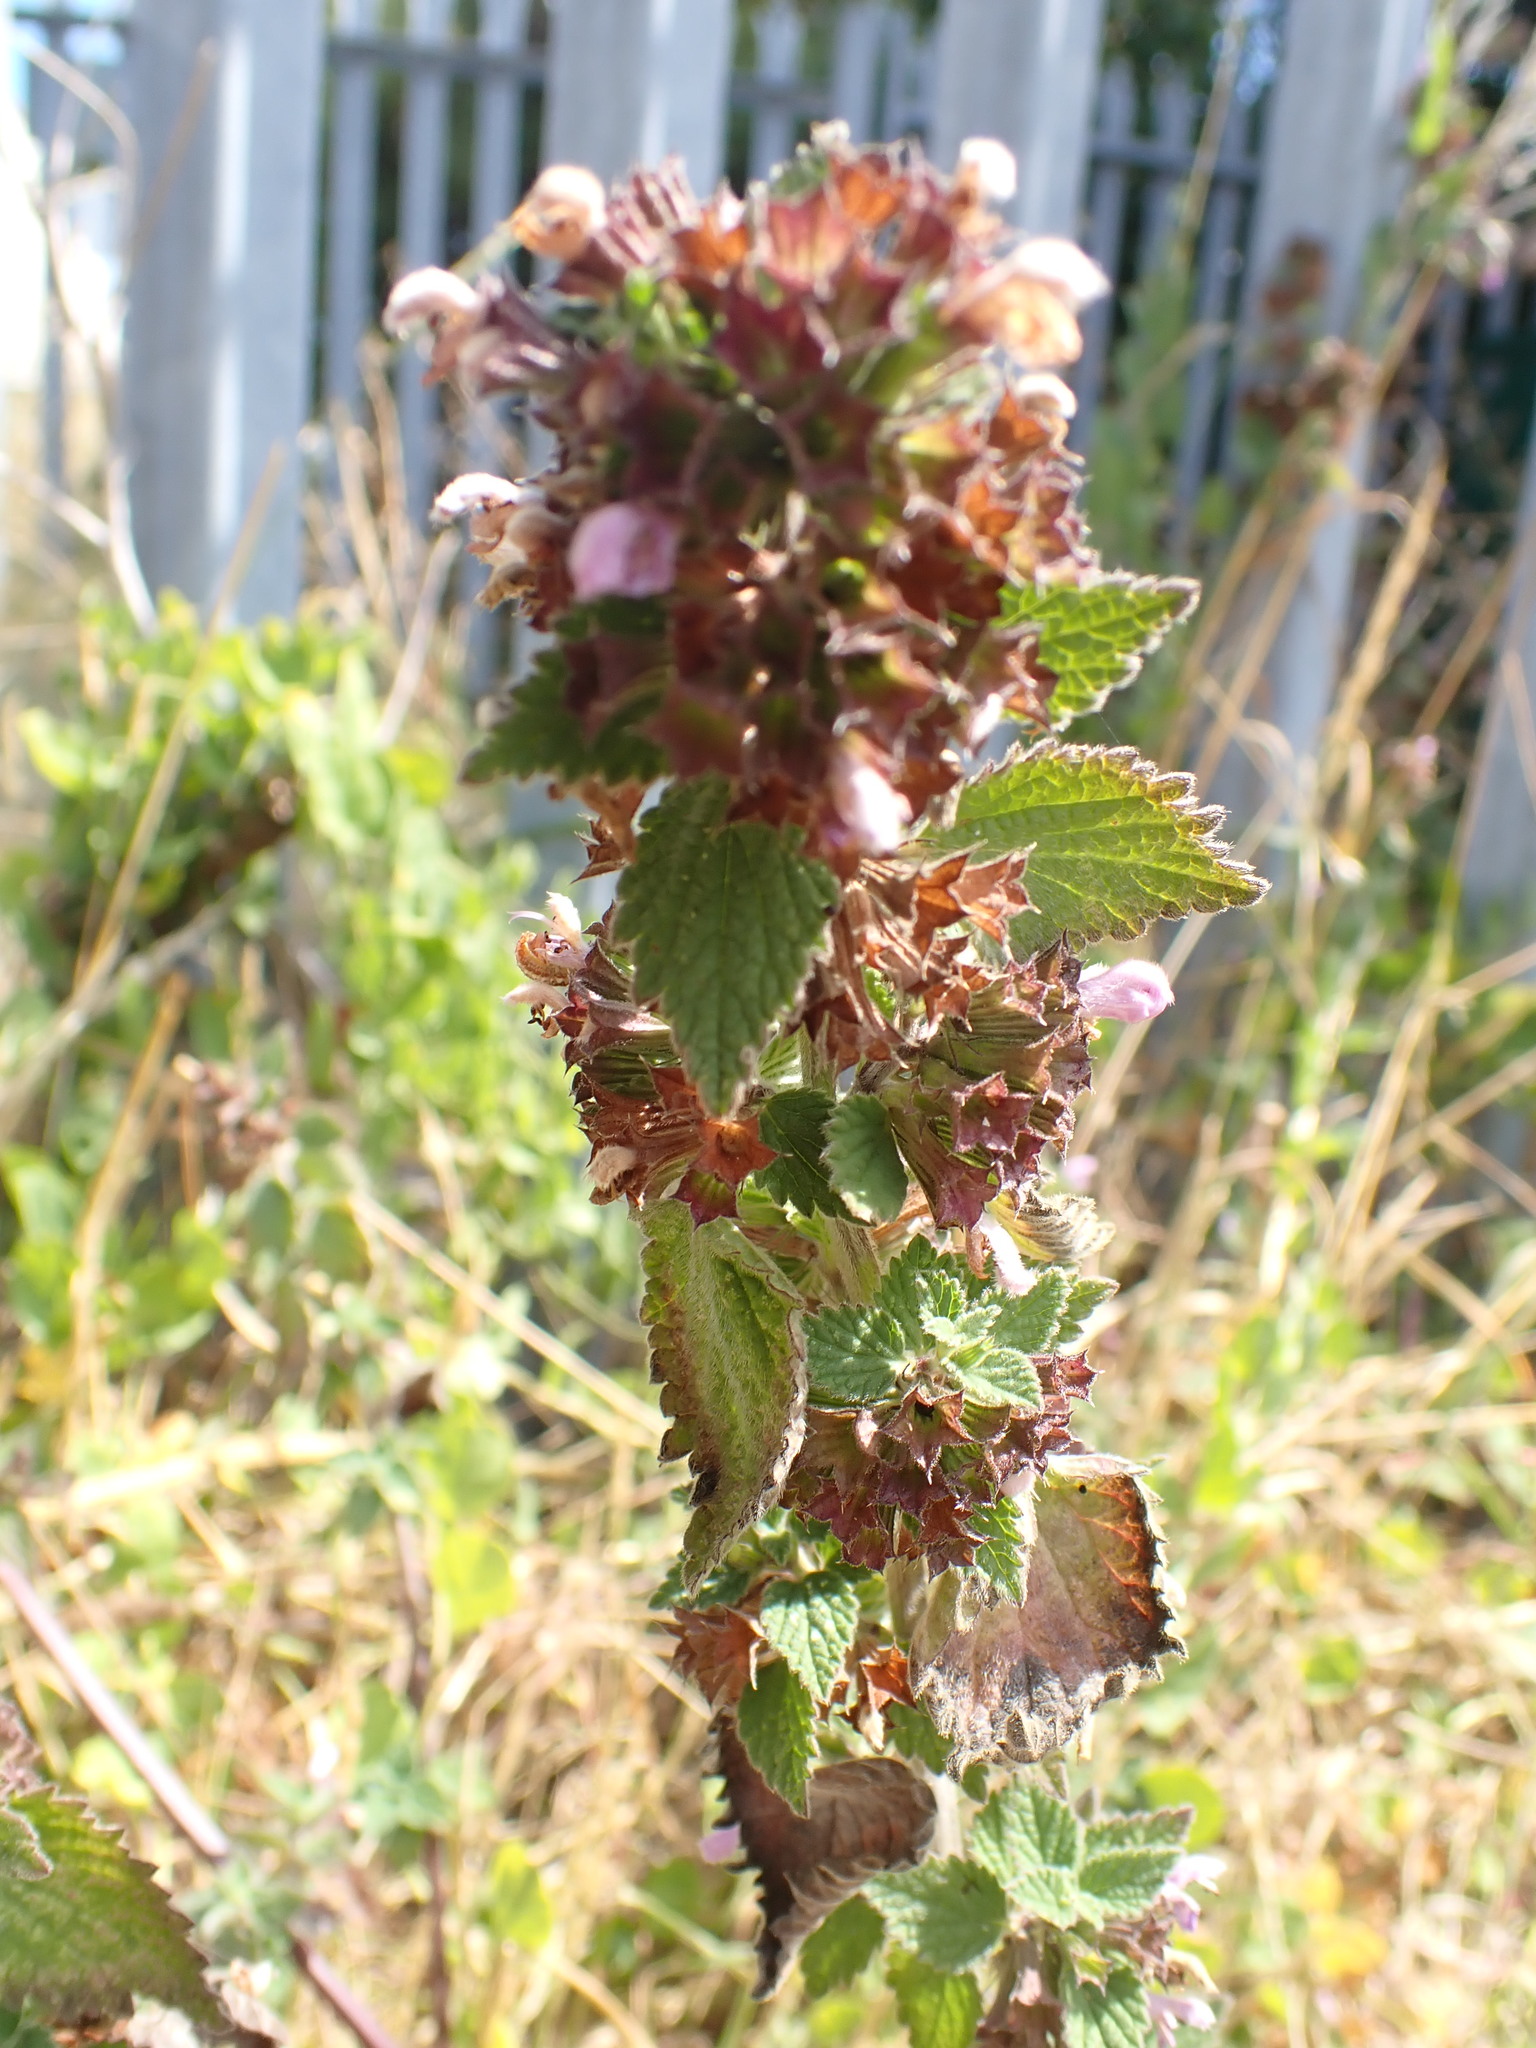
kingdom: Plantae
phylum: Tracheophyta
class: Magnoliopsida
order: Lamiales
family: Lamiaceae
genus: Ballota
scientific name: Ballota nigra
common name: Black horehound
